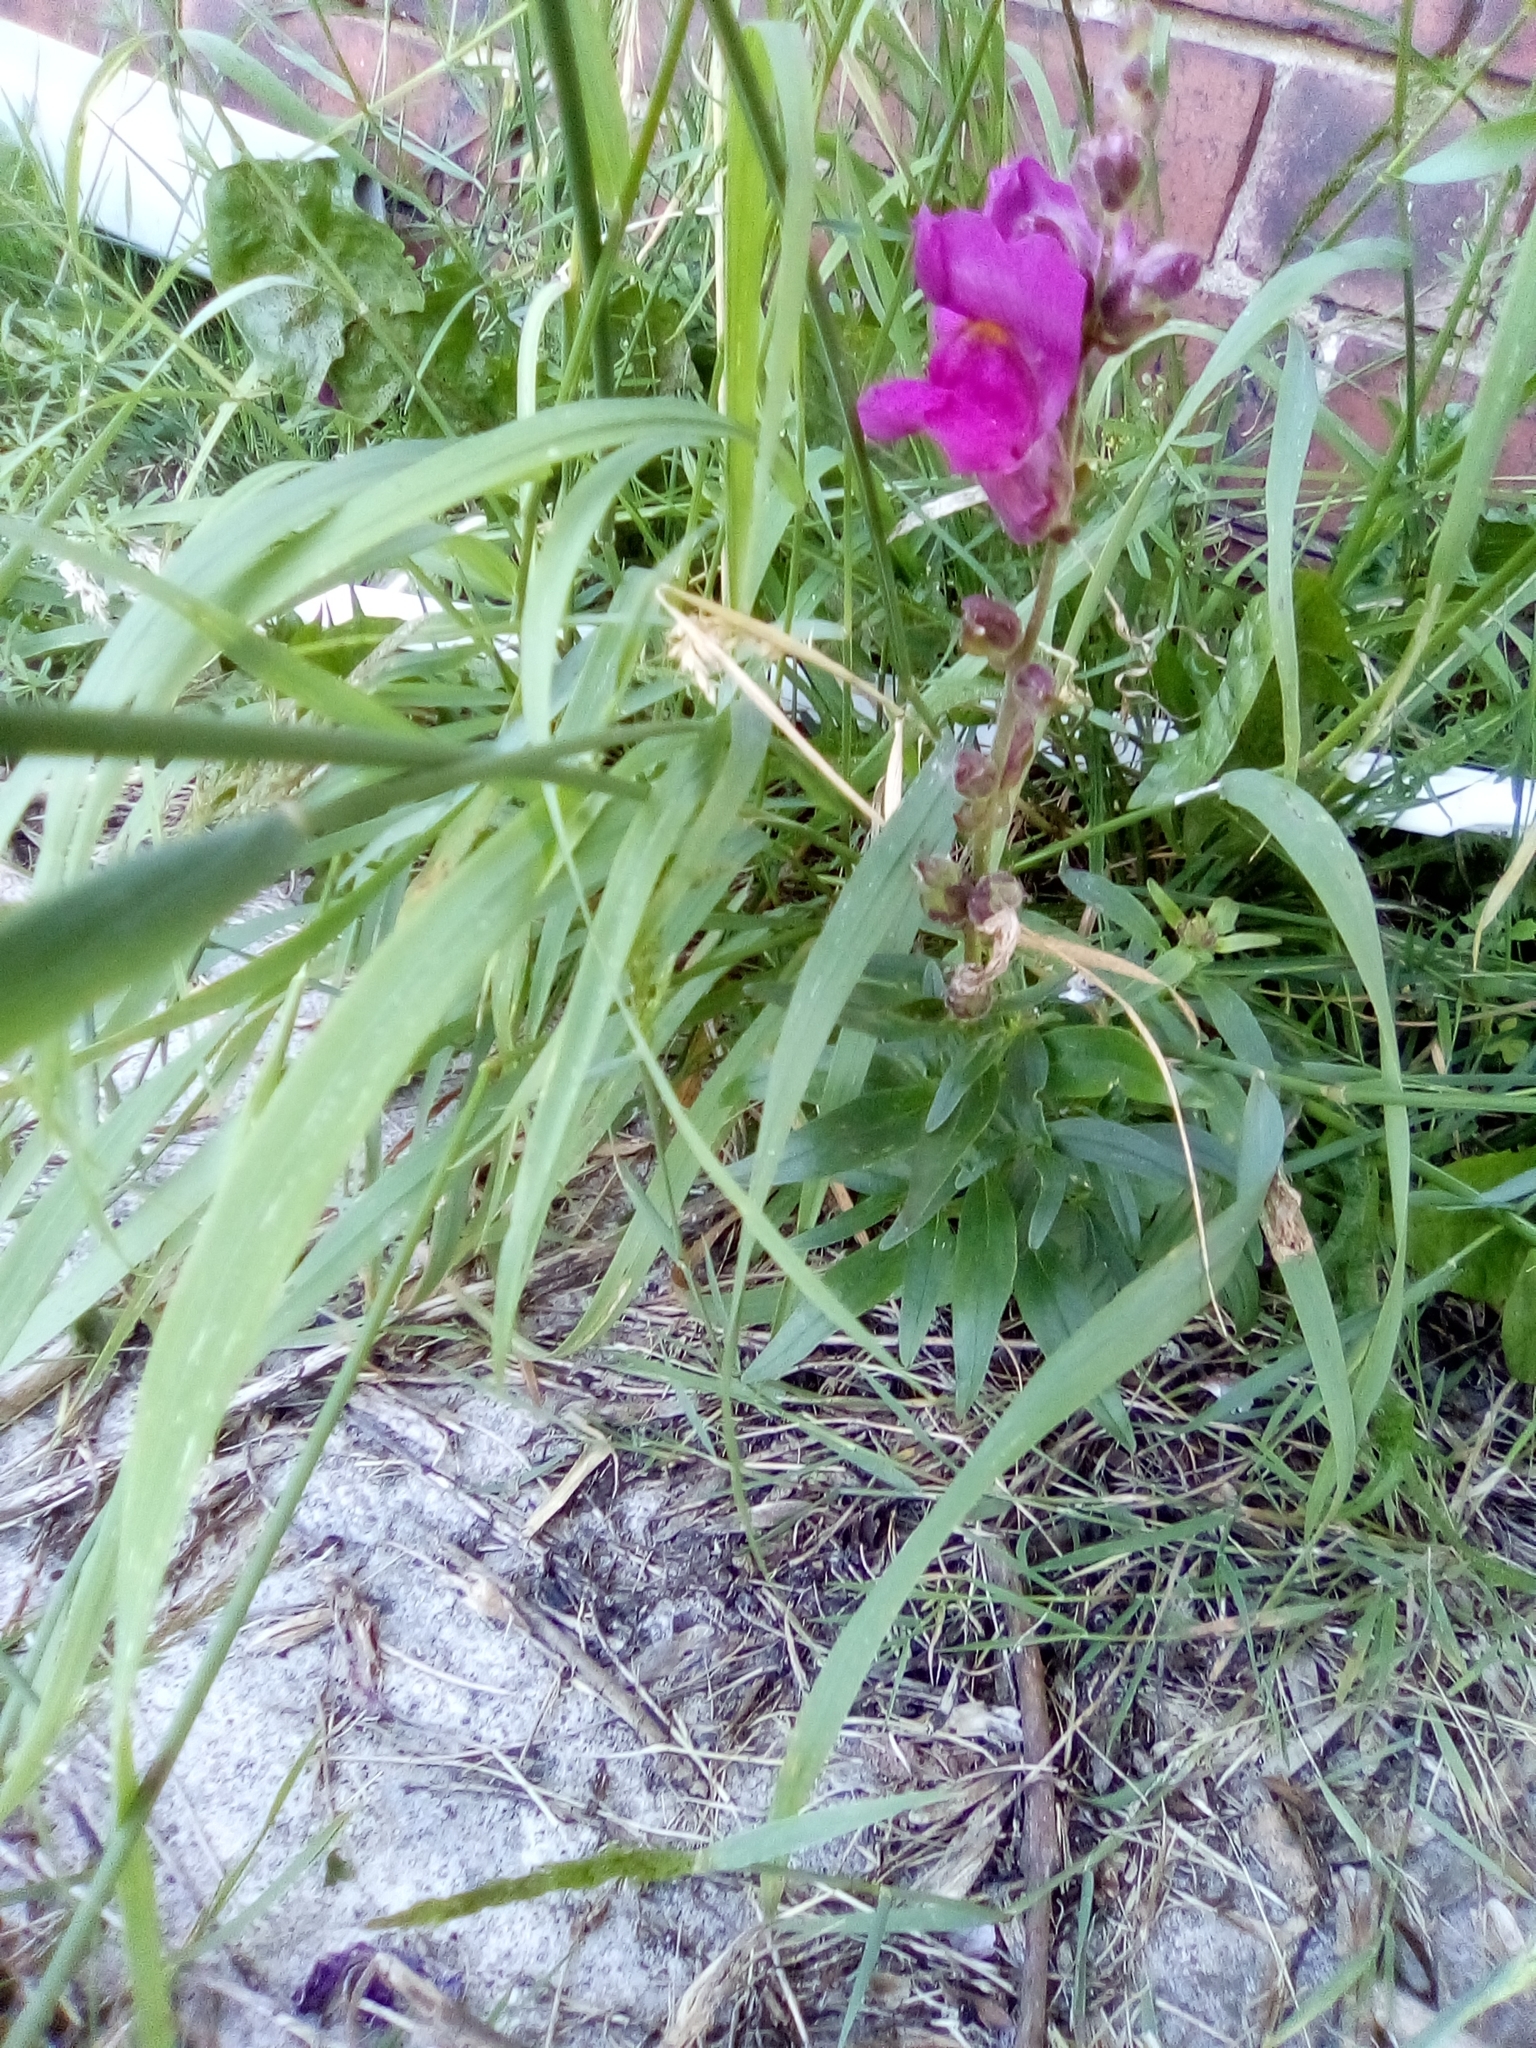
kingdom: Plantae
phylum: Tracheophyta
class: Magnoliopsida
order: Lamiales
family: Plantaginaceae
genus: Antirrhinum
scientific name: Antirrhinum majus
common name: Snapdragon
